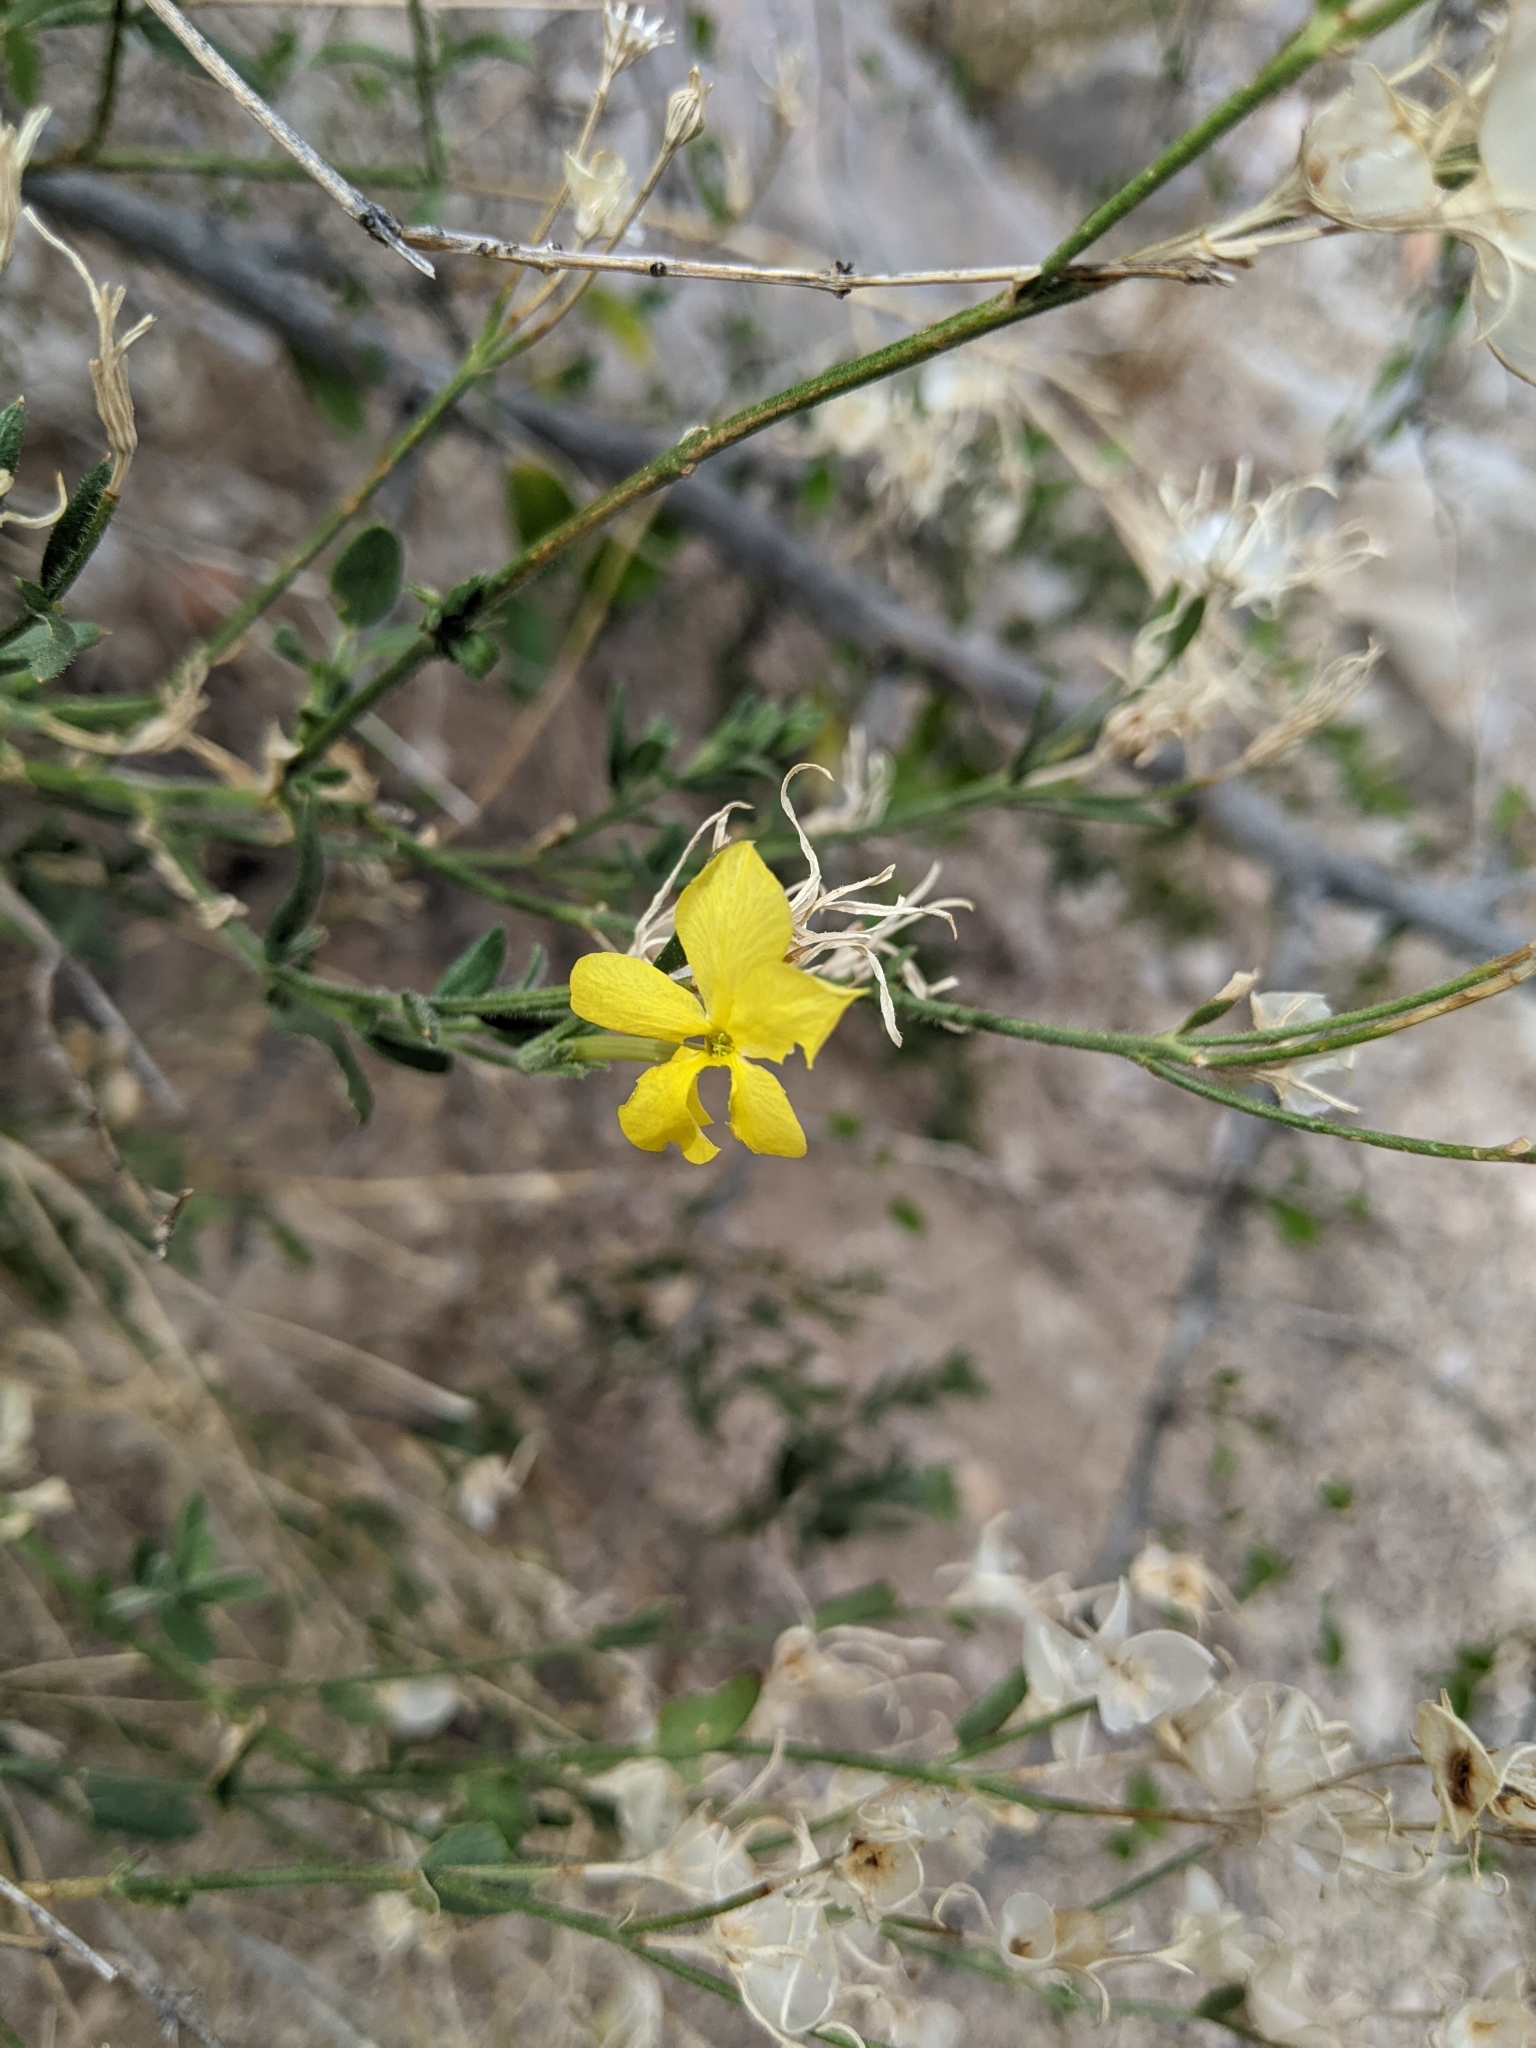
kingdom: Plantae
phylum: Tracheophyta
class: Magnoliopsida
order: Lamiales
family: Oleaceae
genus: Menodora
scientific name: Menodora longiflora
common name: Showy menodora
